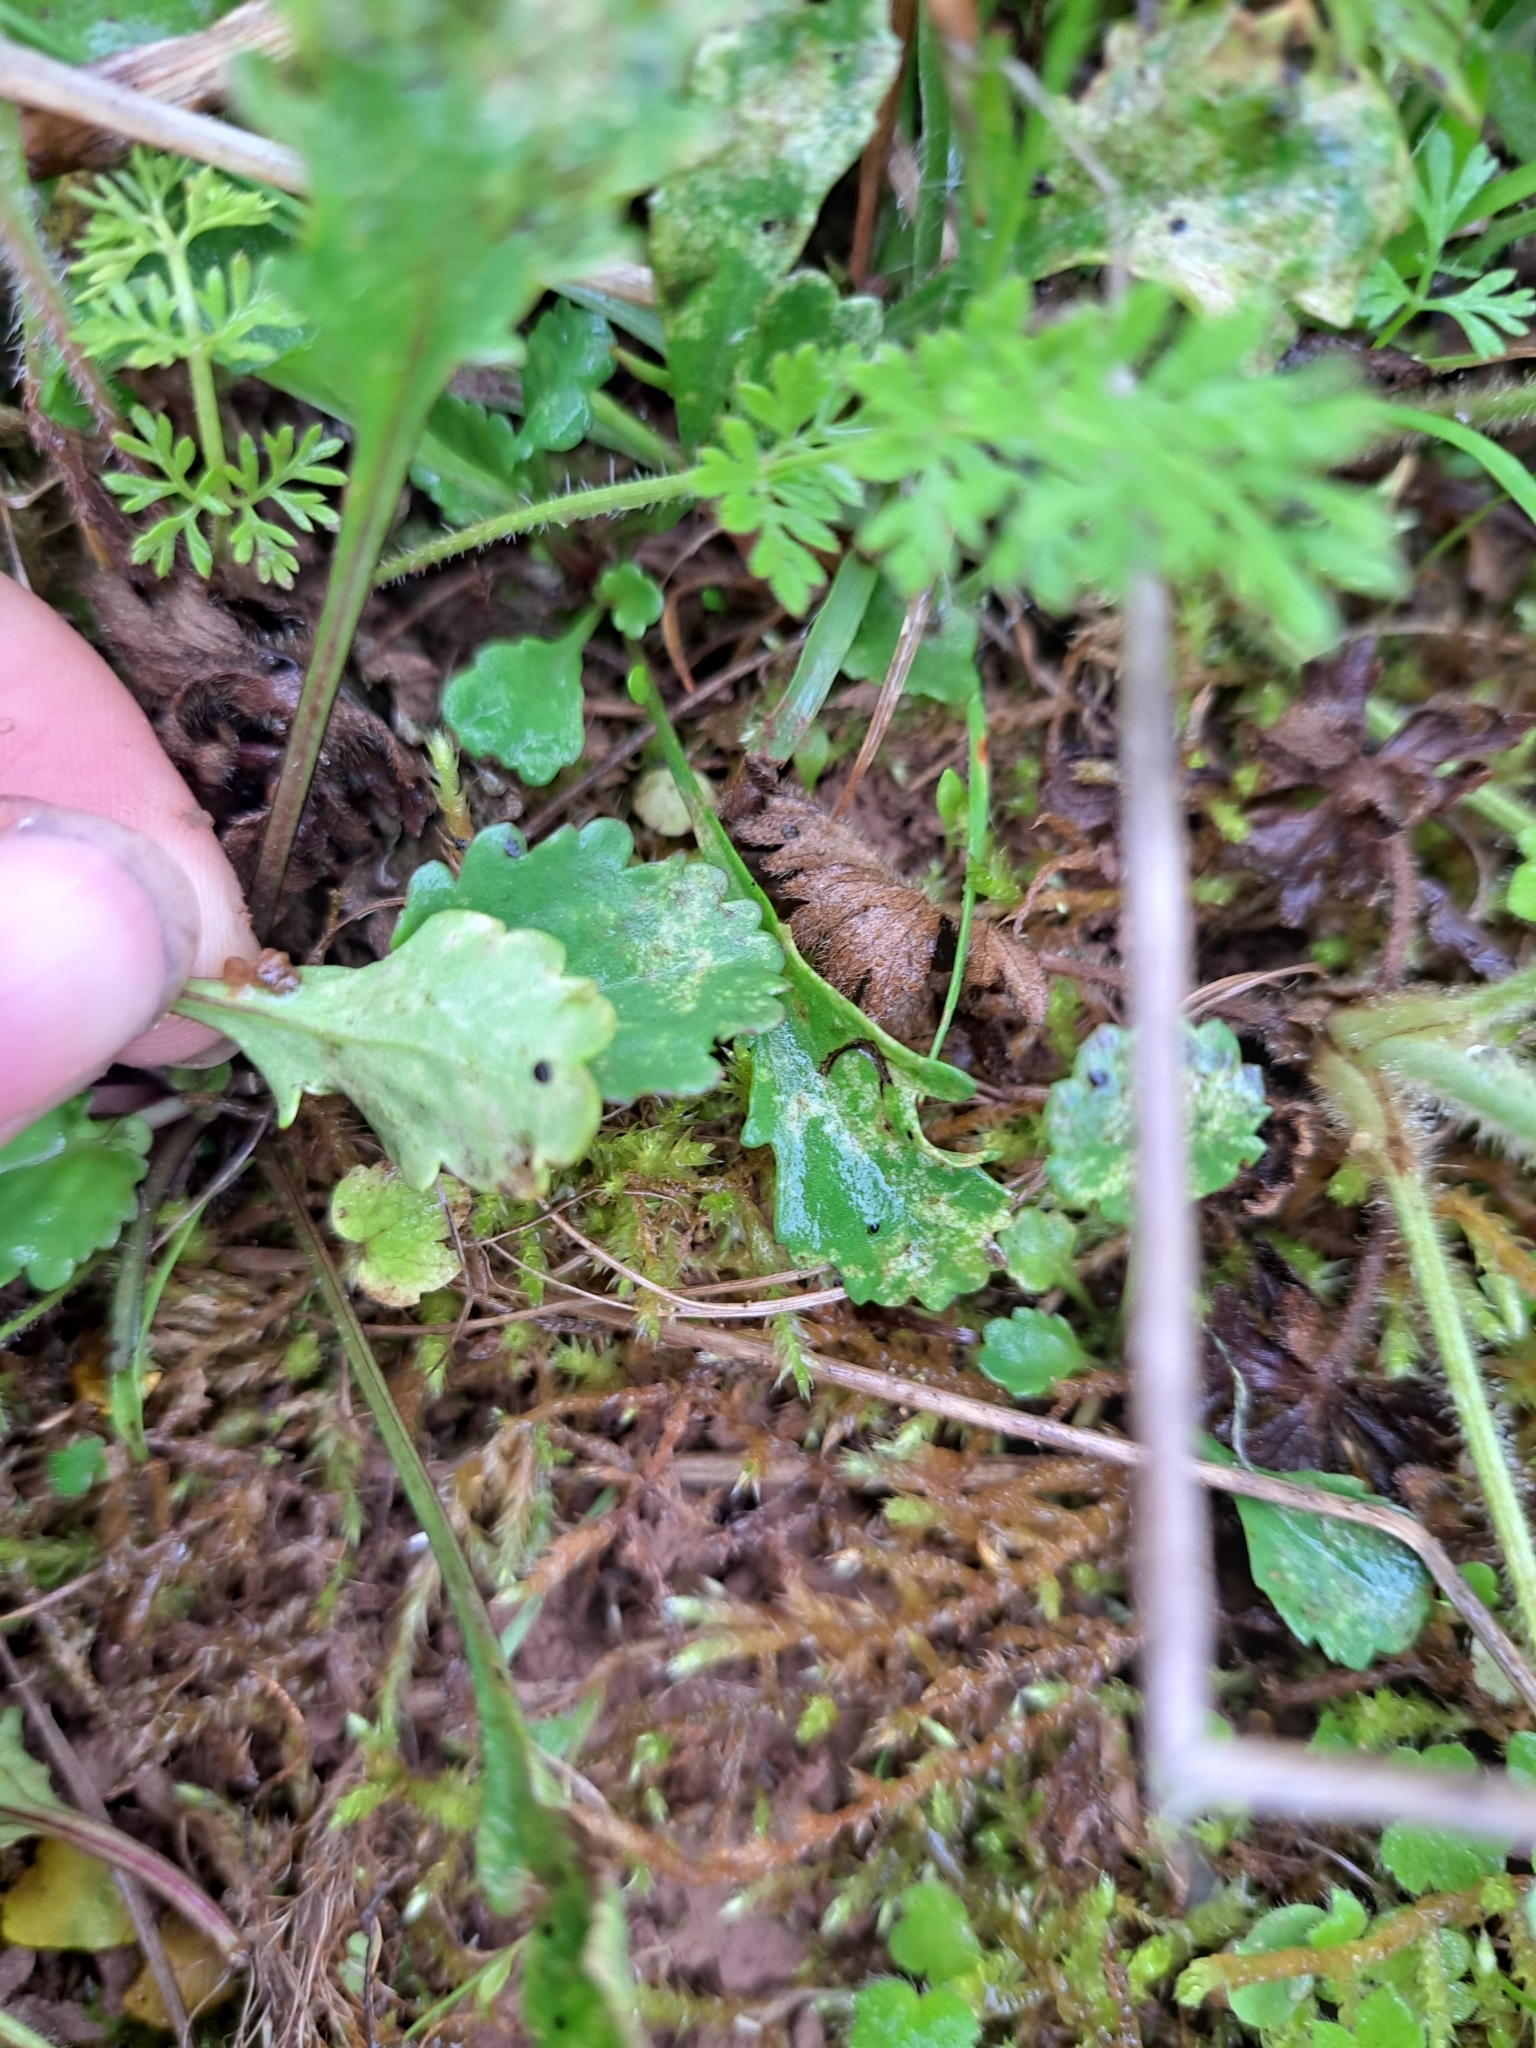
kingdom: Plantae
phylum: Tracheophyta
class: Magnoliopsida
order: Asterales
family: Asteraceae
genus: Leucanthemum
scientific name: Leucanthemum vulgare
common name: Oxeye daisy
